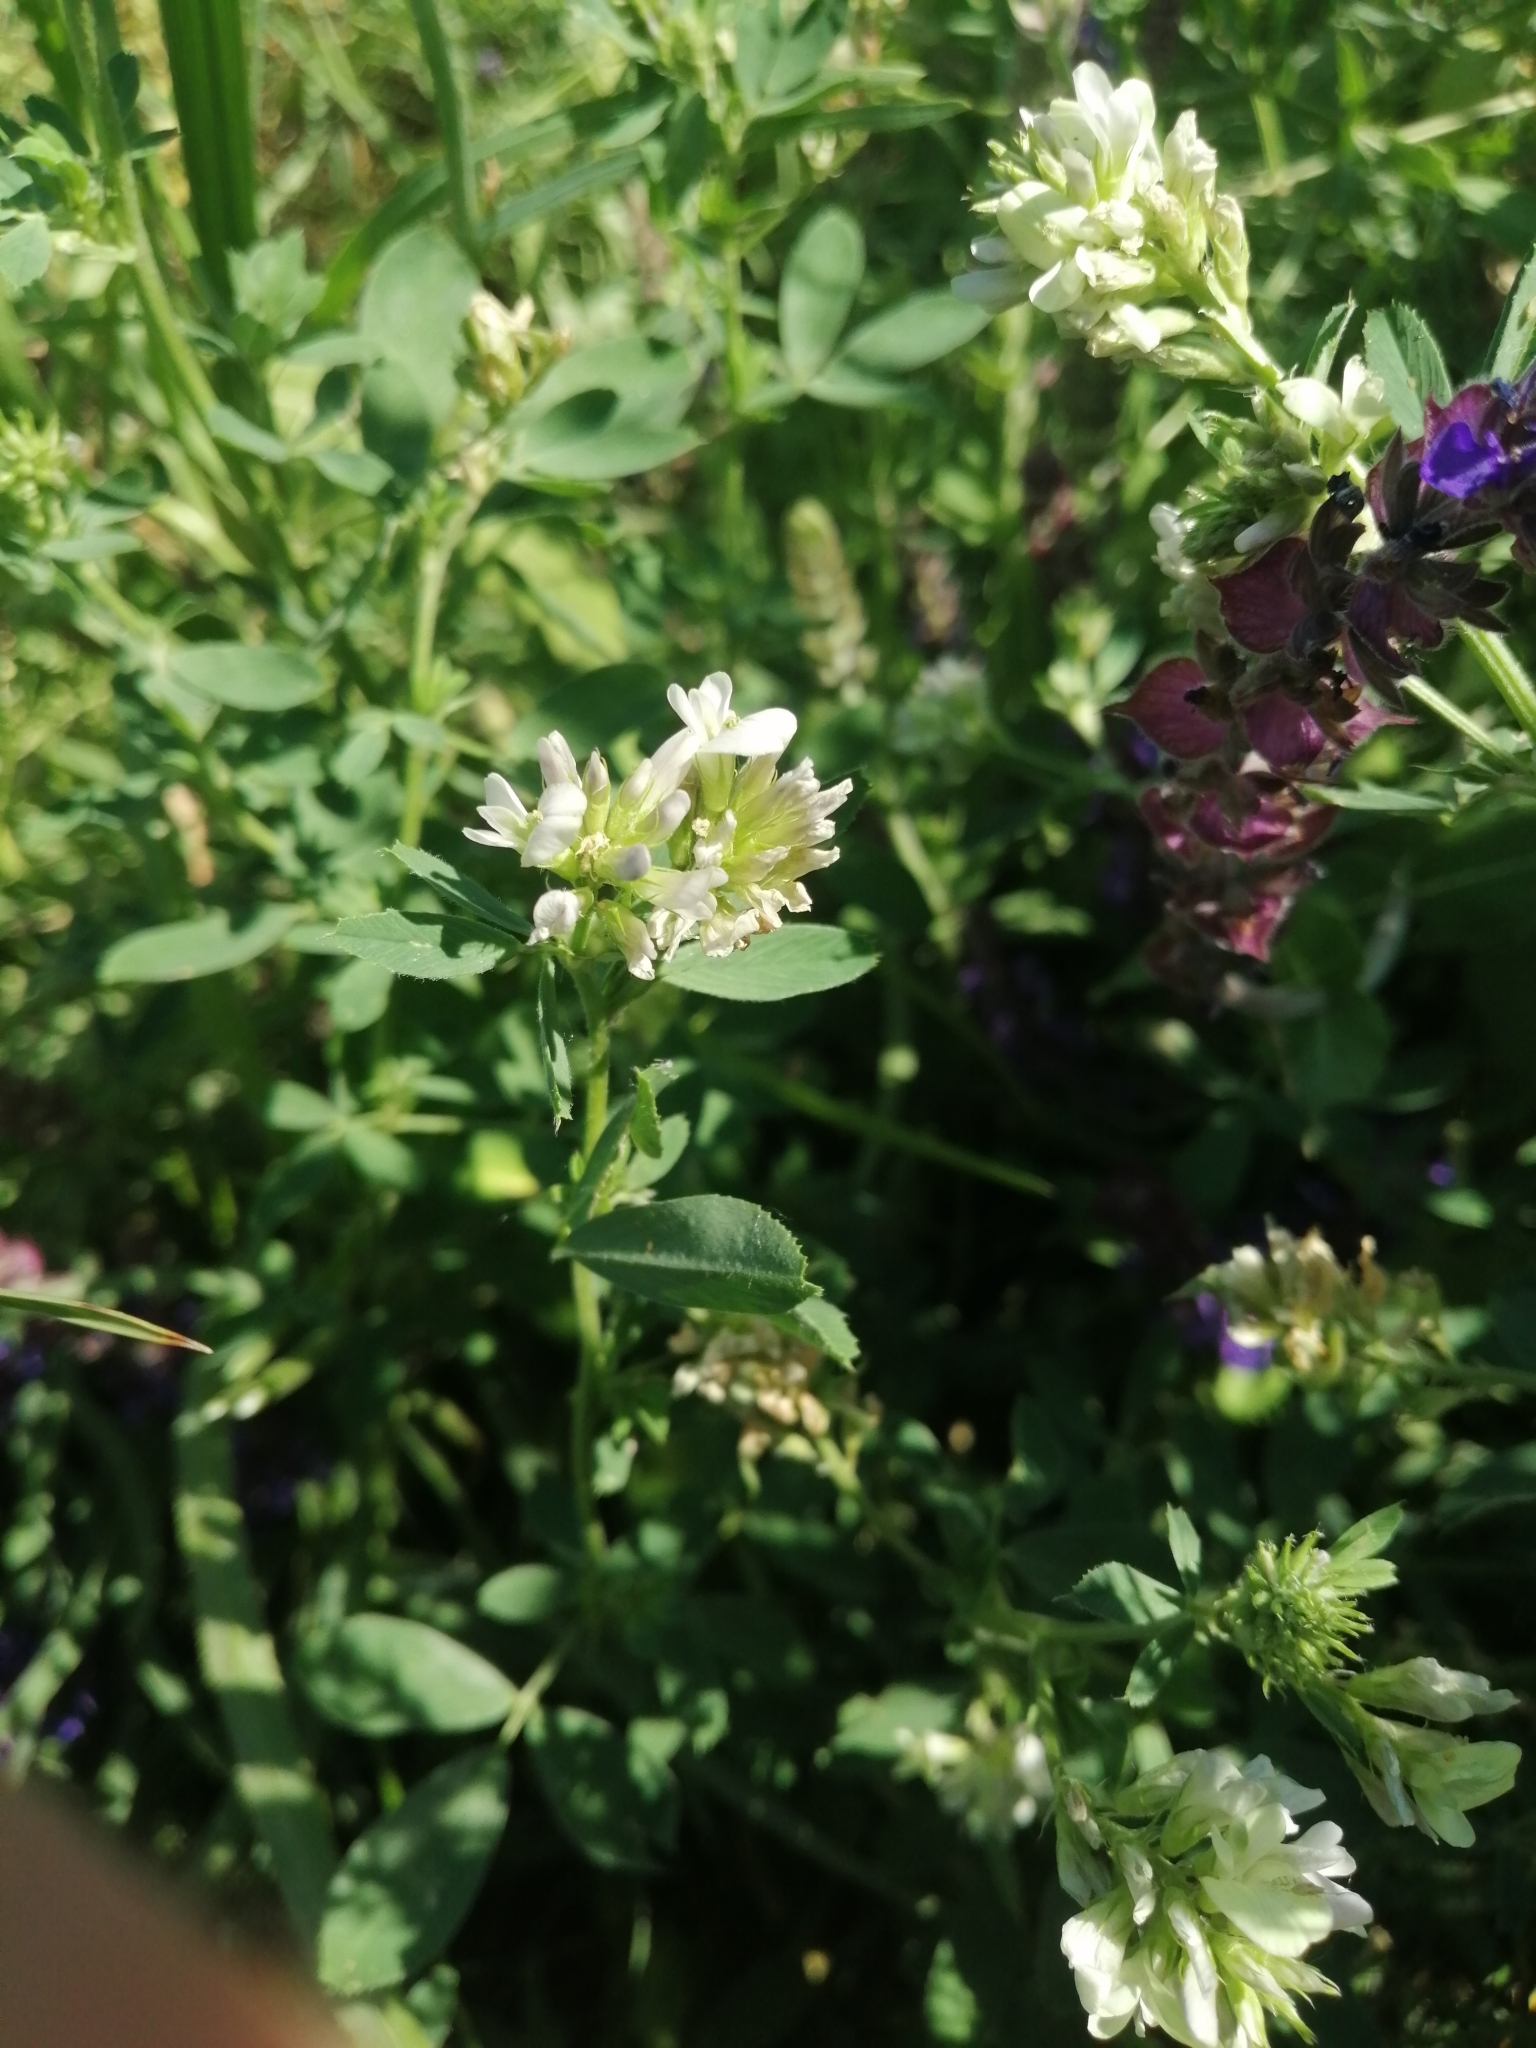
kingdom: Plantae
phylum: Tracheophyta
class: Magnoliopsida
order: Fabales
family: Fabaceae
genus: Medicago
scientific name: Medicago varia
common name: Sand lucerne
